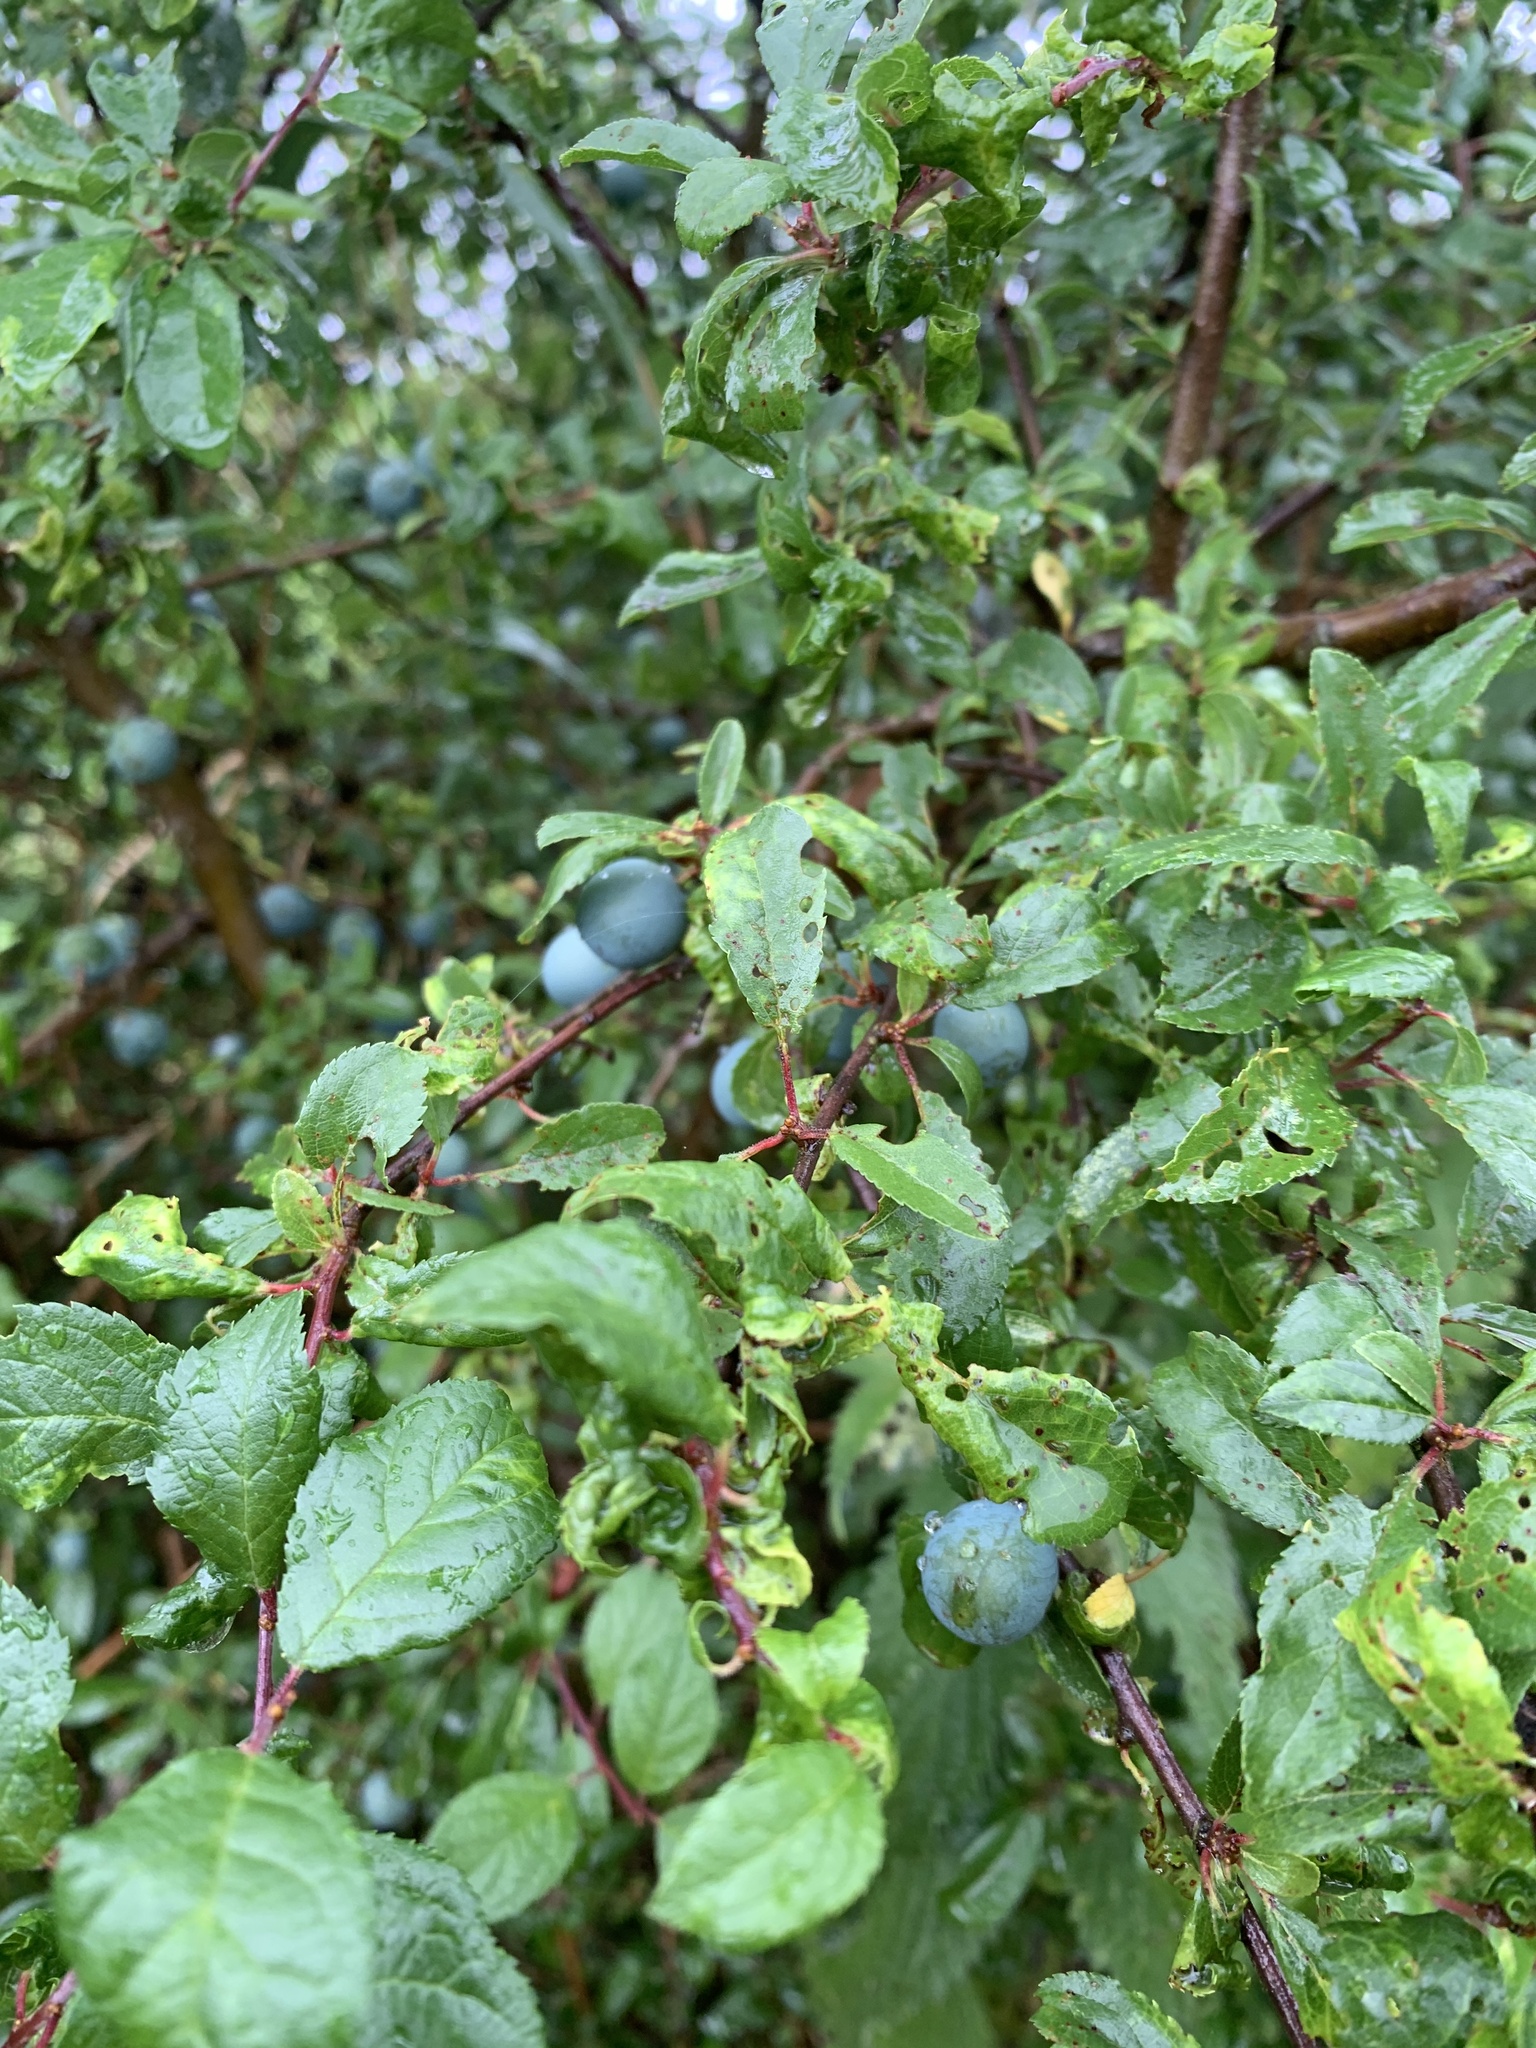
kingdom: Plantae
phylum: Tracheophyta
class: Magnoliopsida
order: Rosales
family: Rosaceae
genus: Prunus
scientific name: Prunus spinosa
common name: Blackthorn
